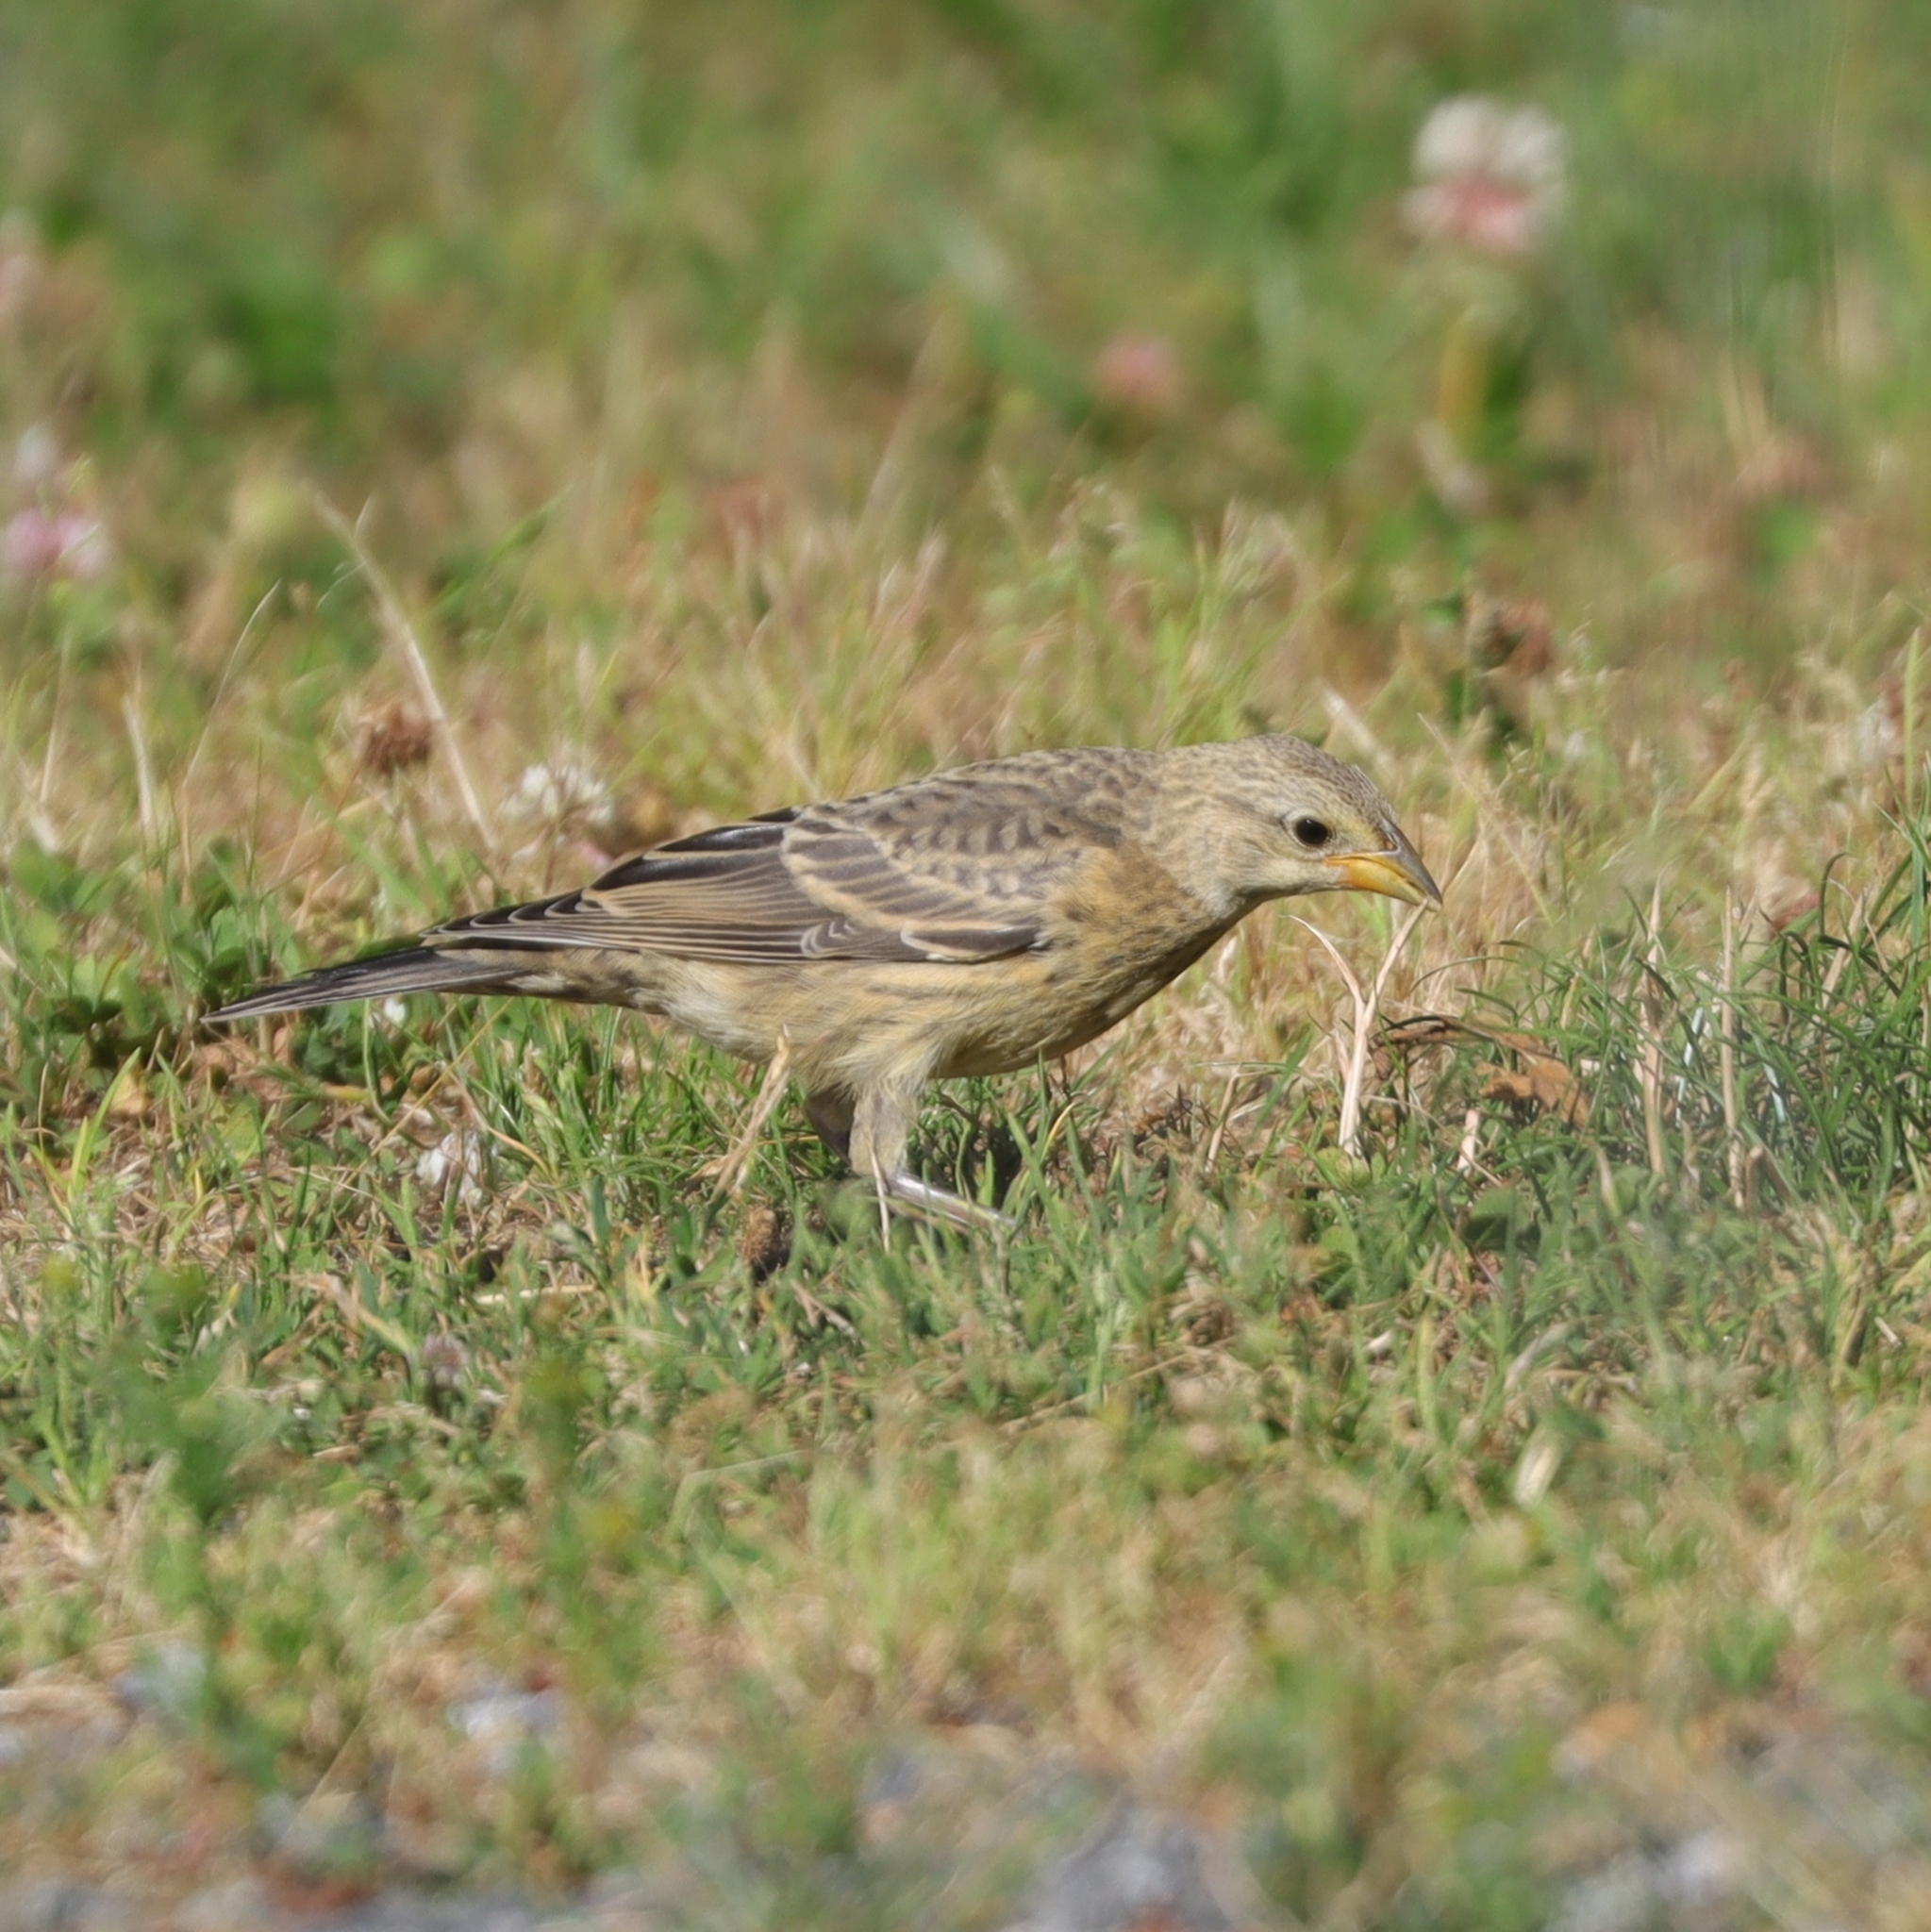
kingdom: Animalia
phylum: Chordata
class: Aves
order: Passeriformes
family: Icteridae
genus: Molothrus
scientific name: Molothrus ater
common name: Brown-headed cowbird
